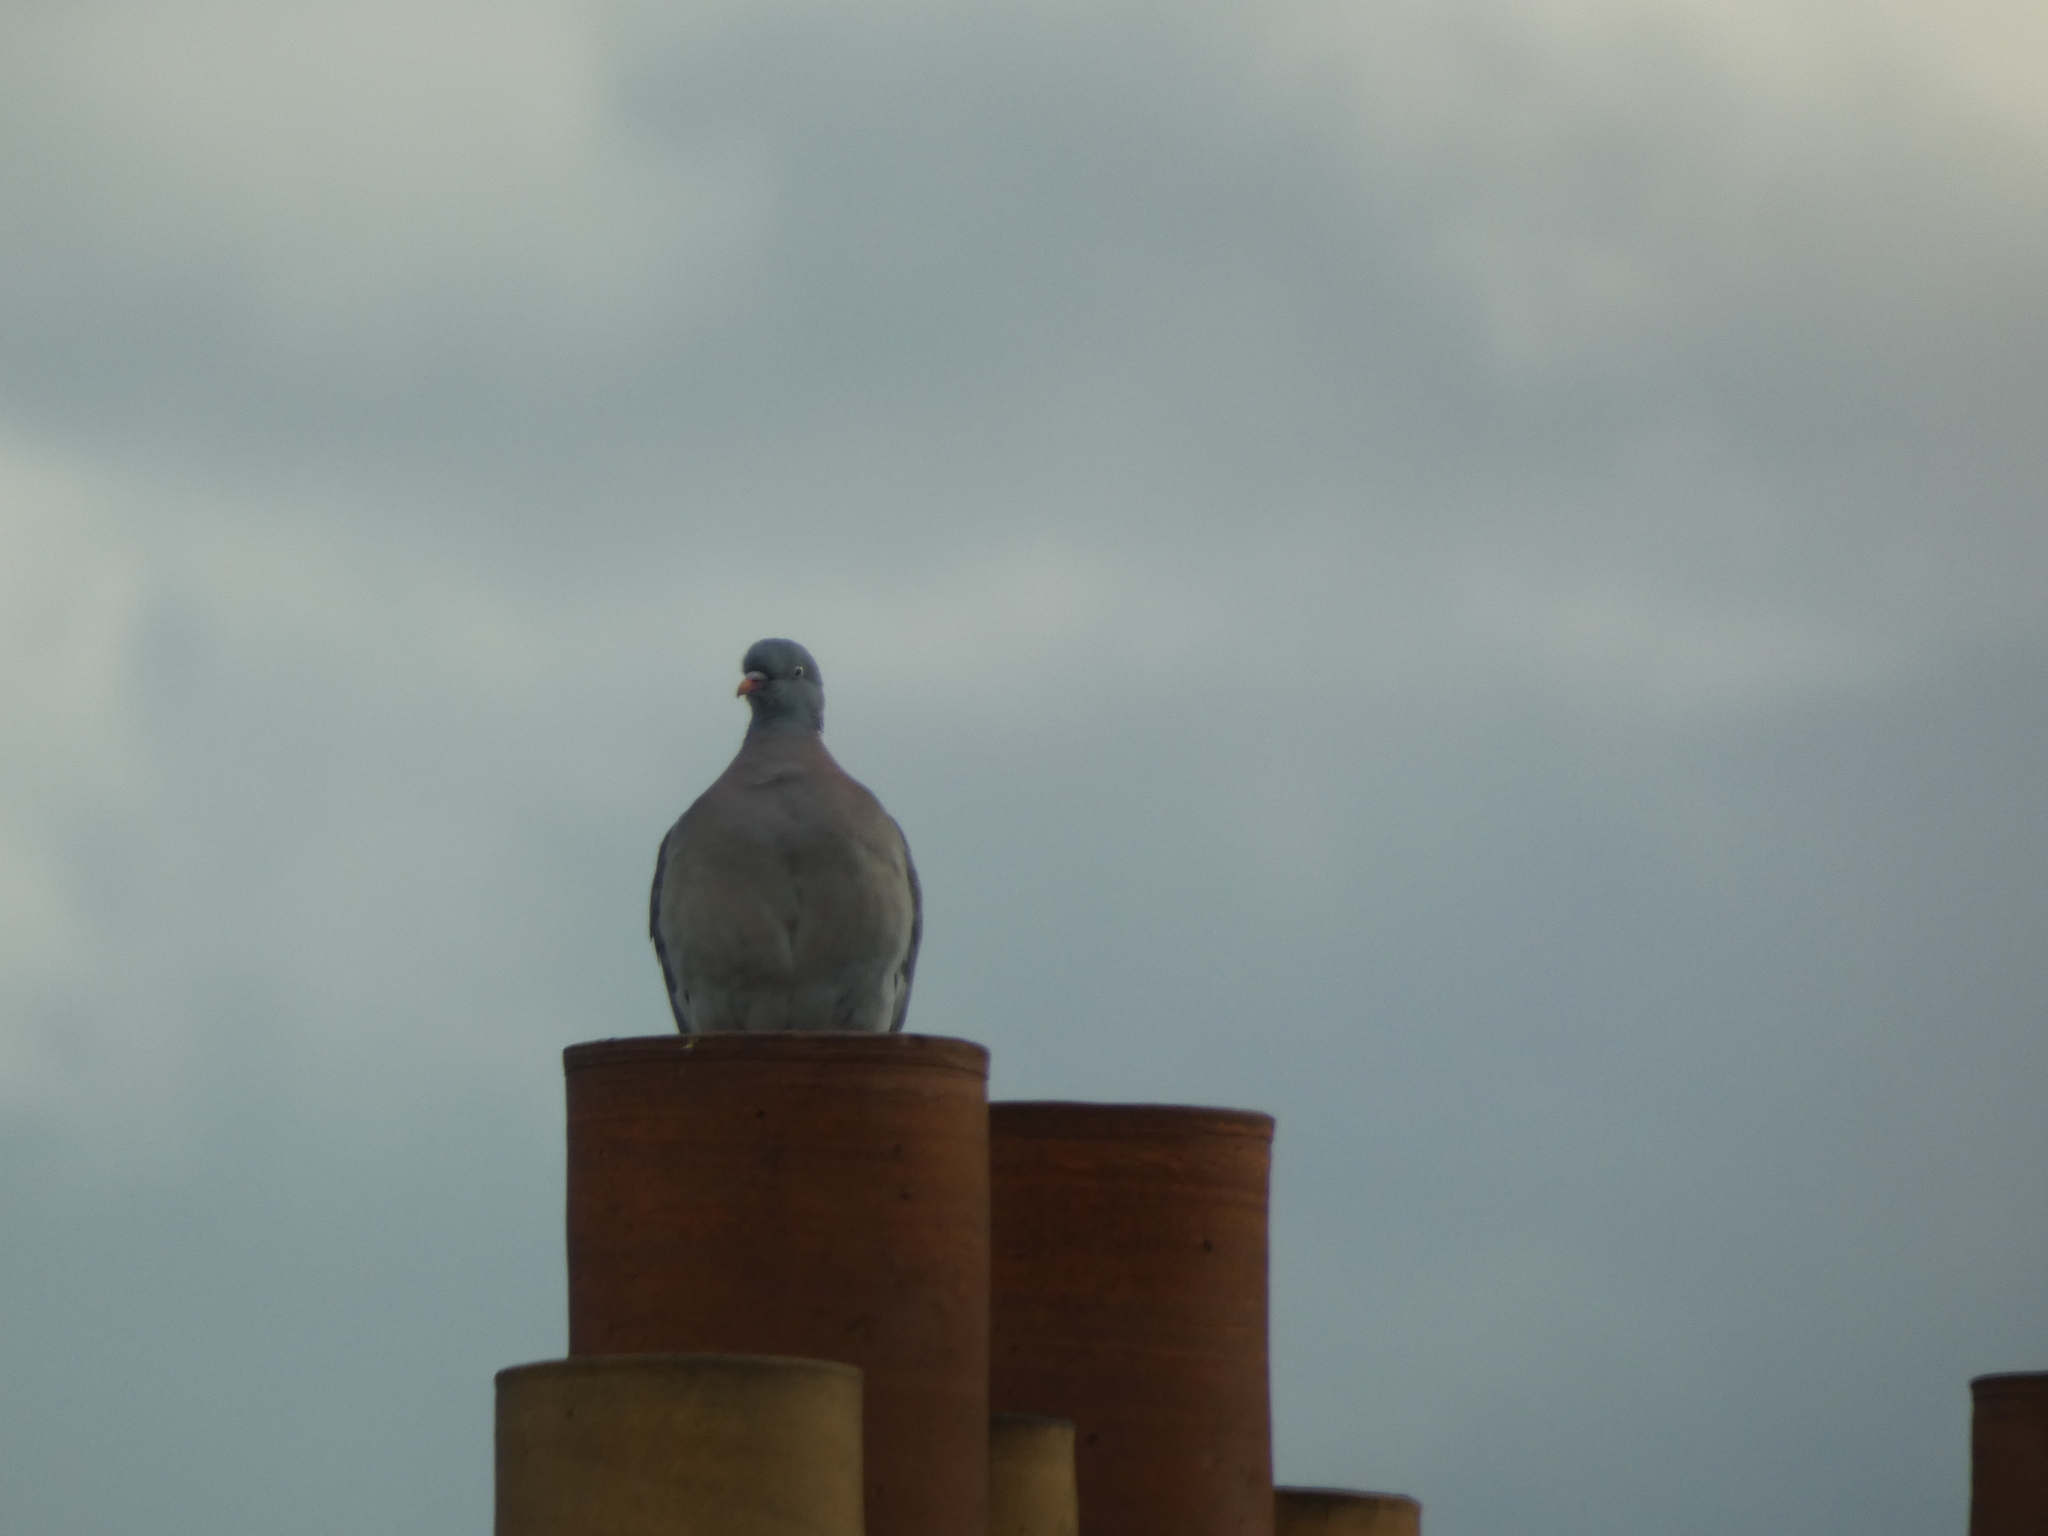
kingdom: Animalia
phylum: Chordata
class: Aves
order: Columbiformes
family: Columbidae
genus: Columba
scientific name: Columba palumbus
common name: Common wood pigeon
